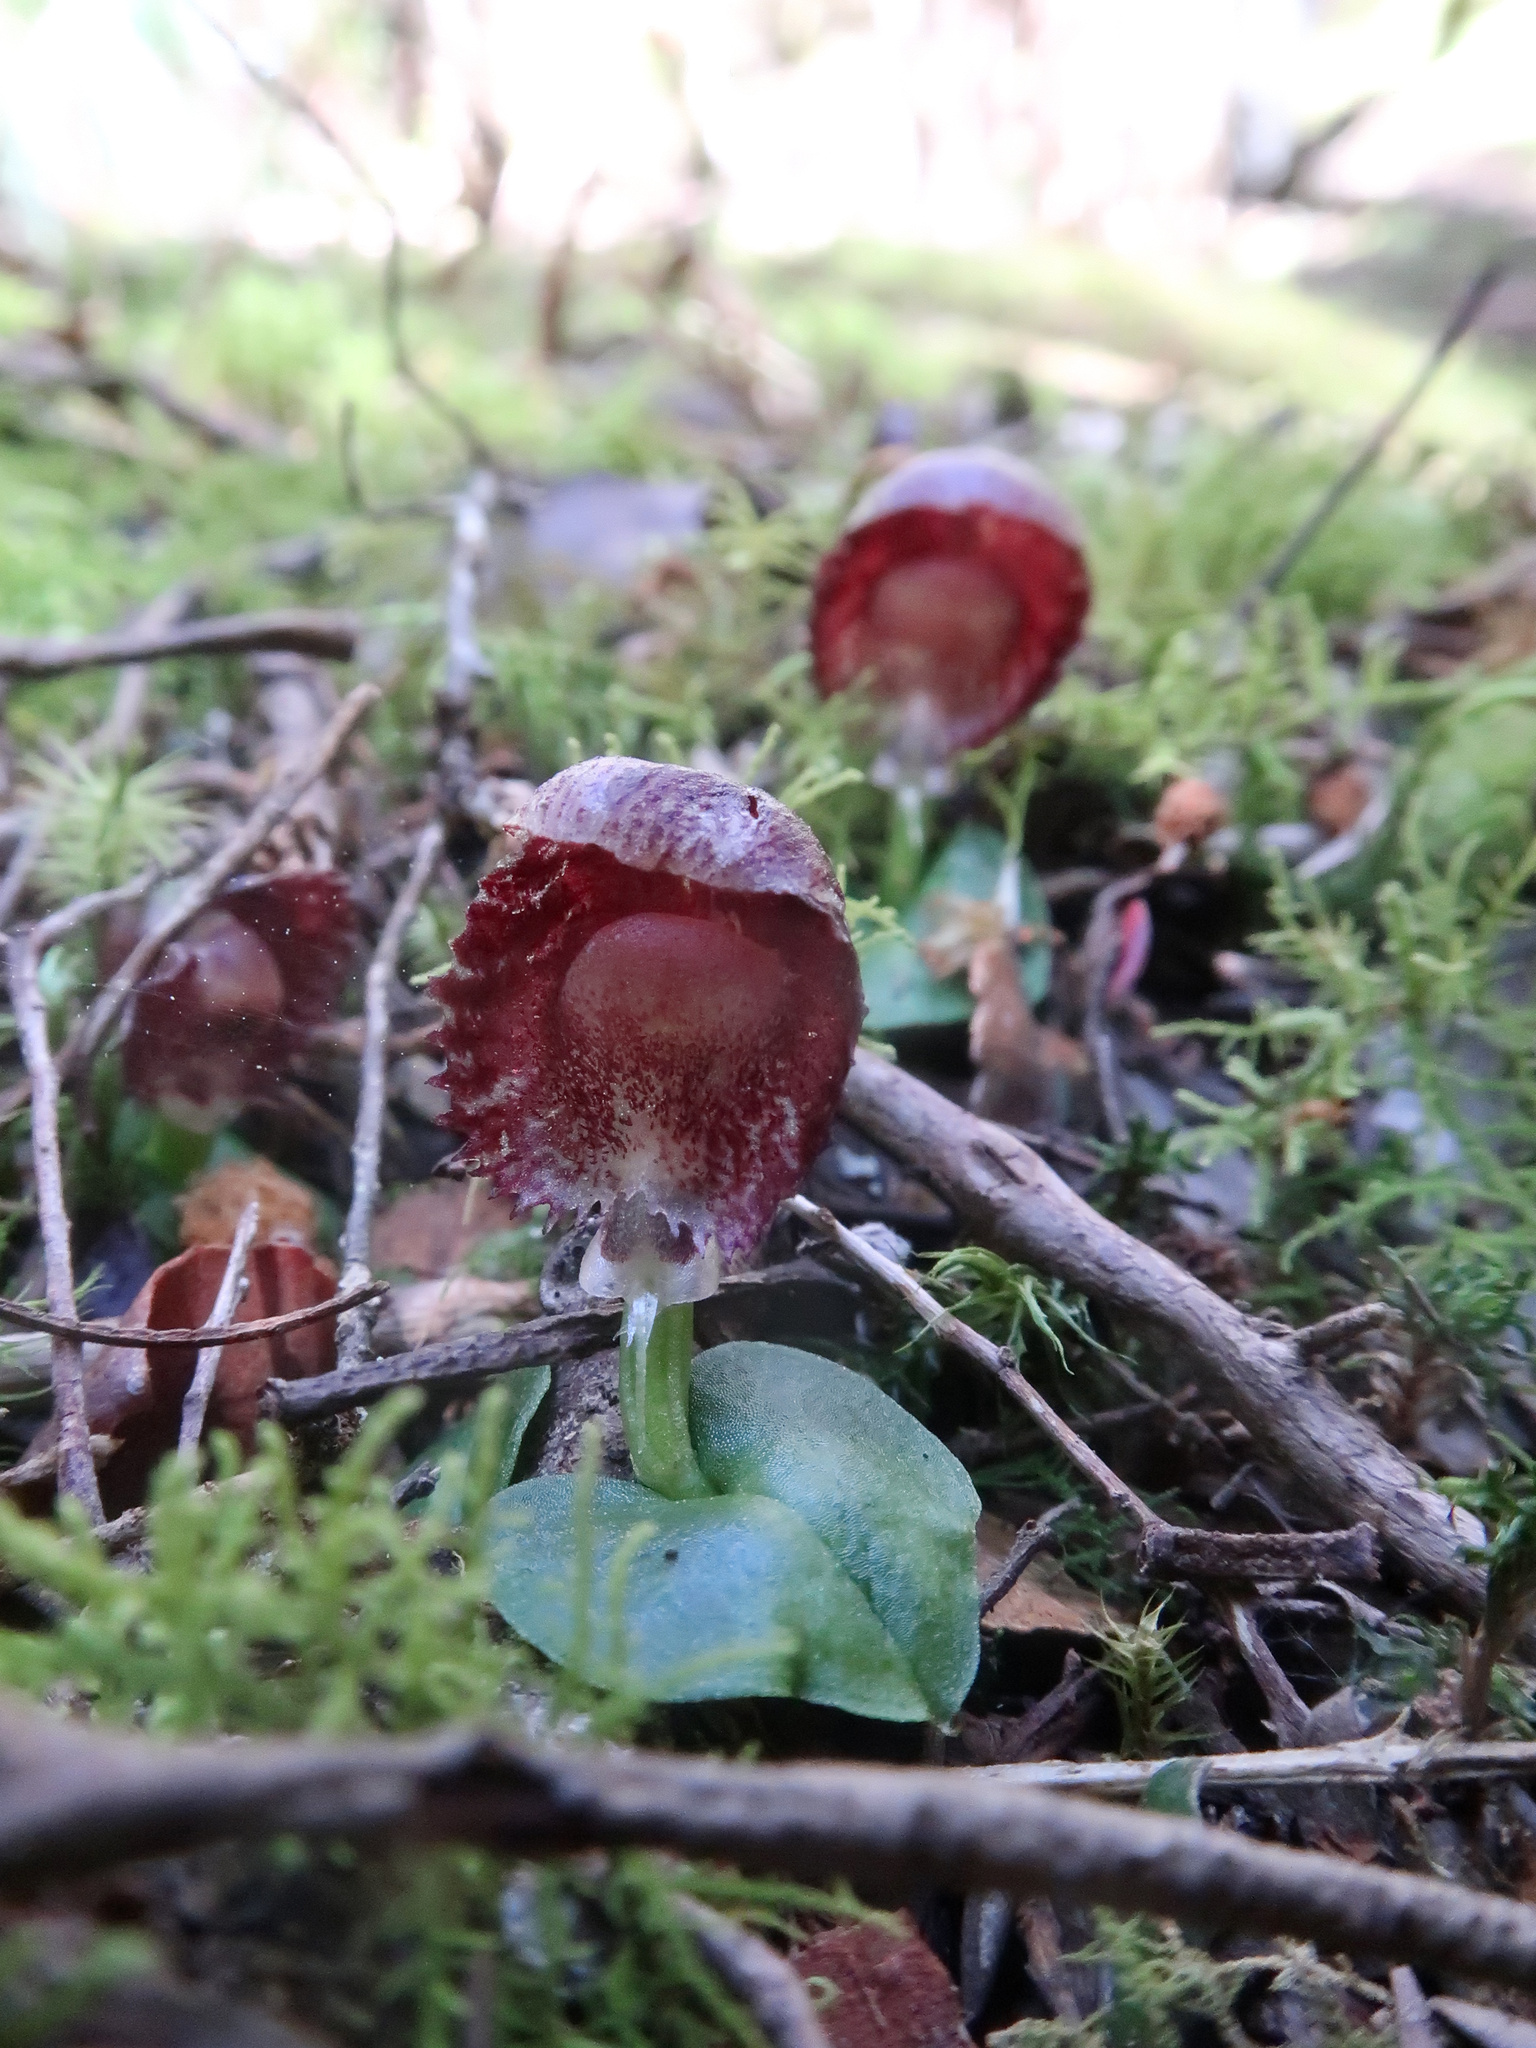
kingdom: Plantae
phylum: Tracheophyta
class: Liliopsida
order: Asparagales
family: Orchidaceae
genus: Corybas
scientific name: Corybas diemenicus
